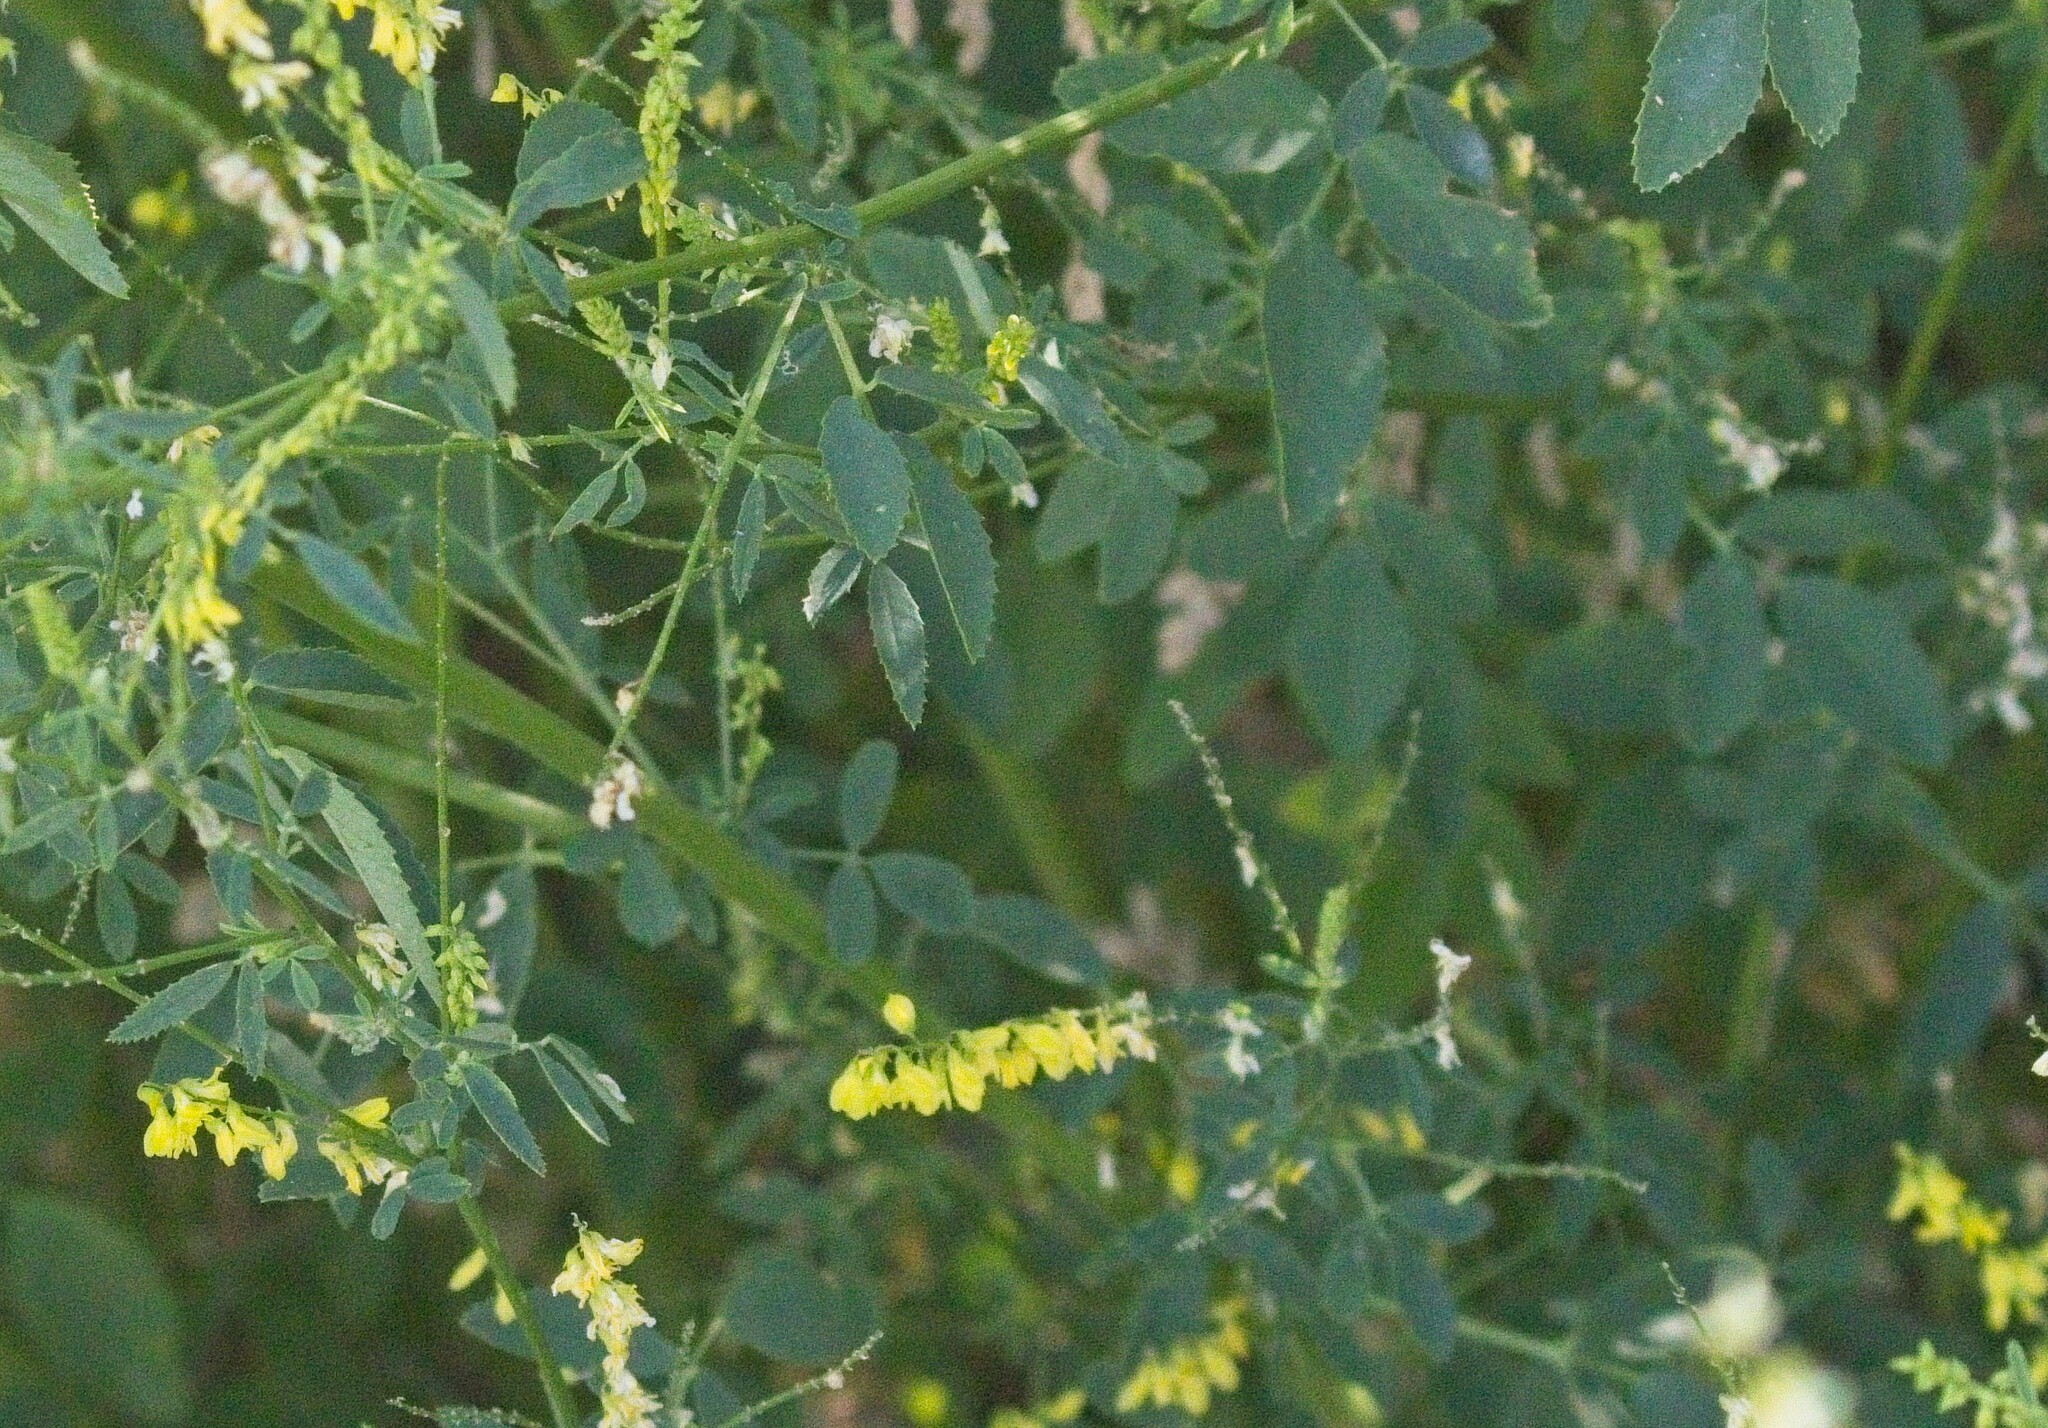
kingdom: Plantae
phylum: Tracheophyta
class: Magnoliopsida
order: Fabales
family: Fabaceae
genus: Melilotus
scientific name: Melilotus officinalis
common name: Sweetclover
